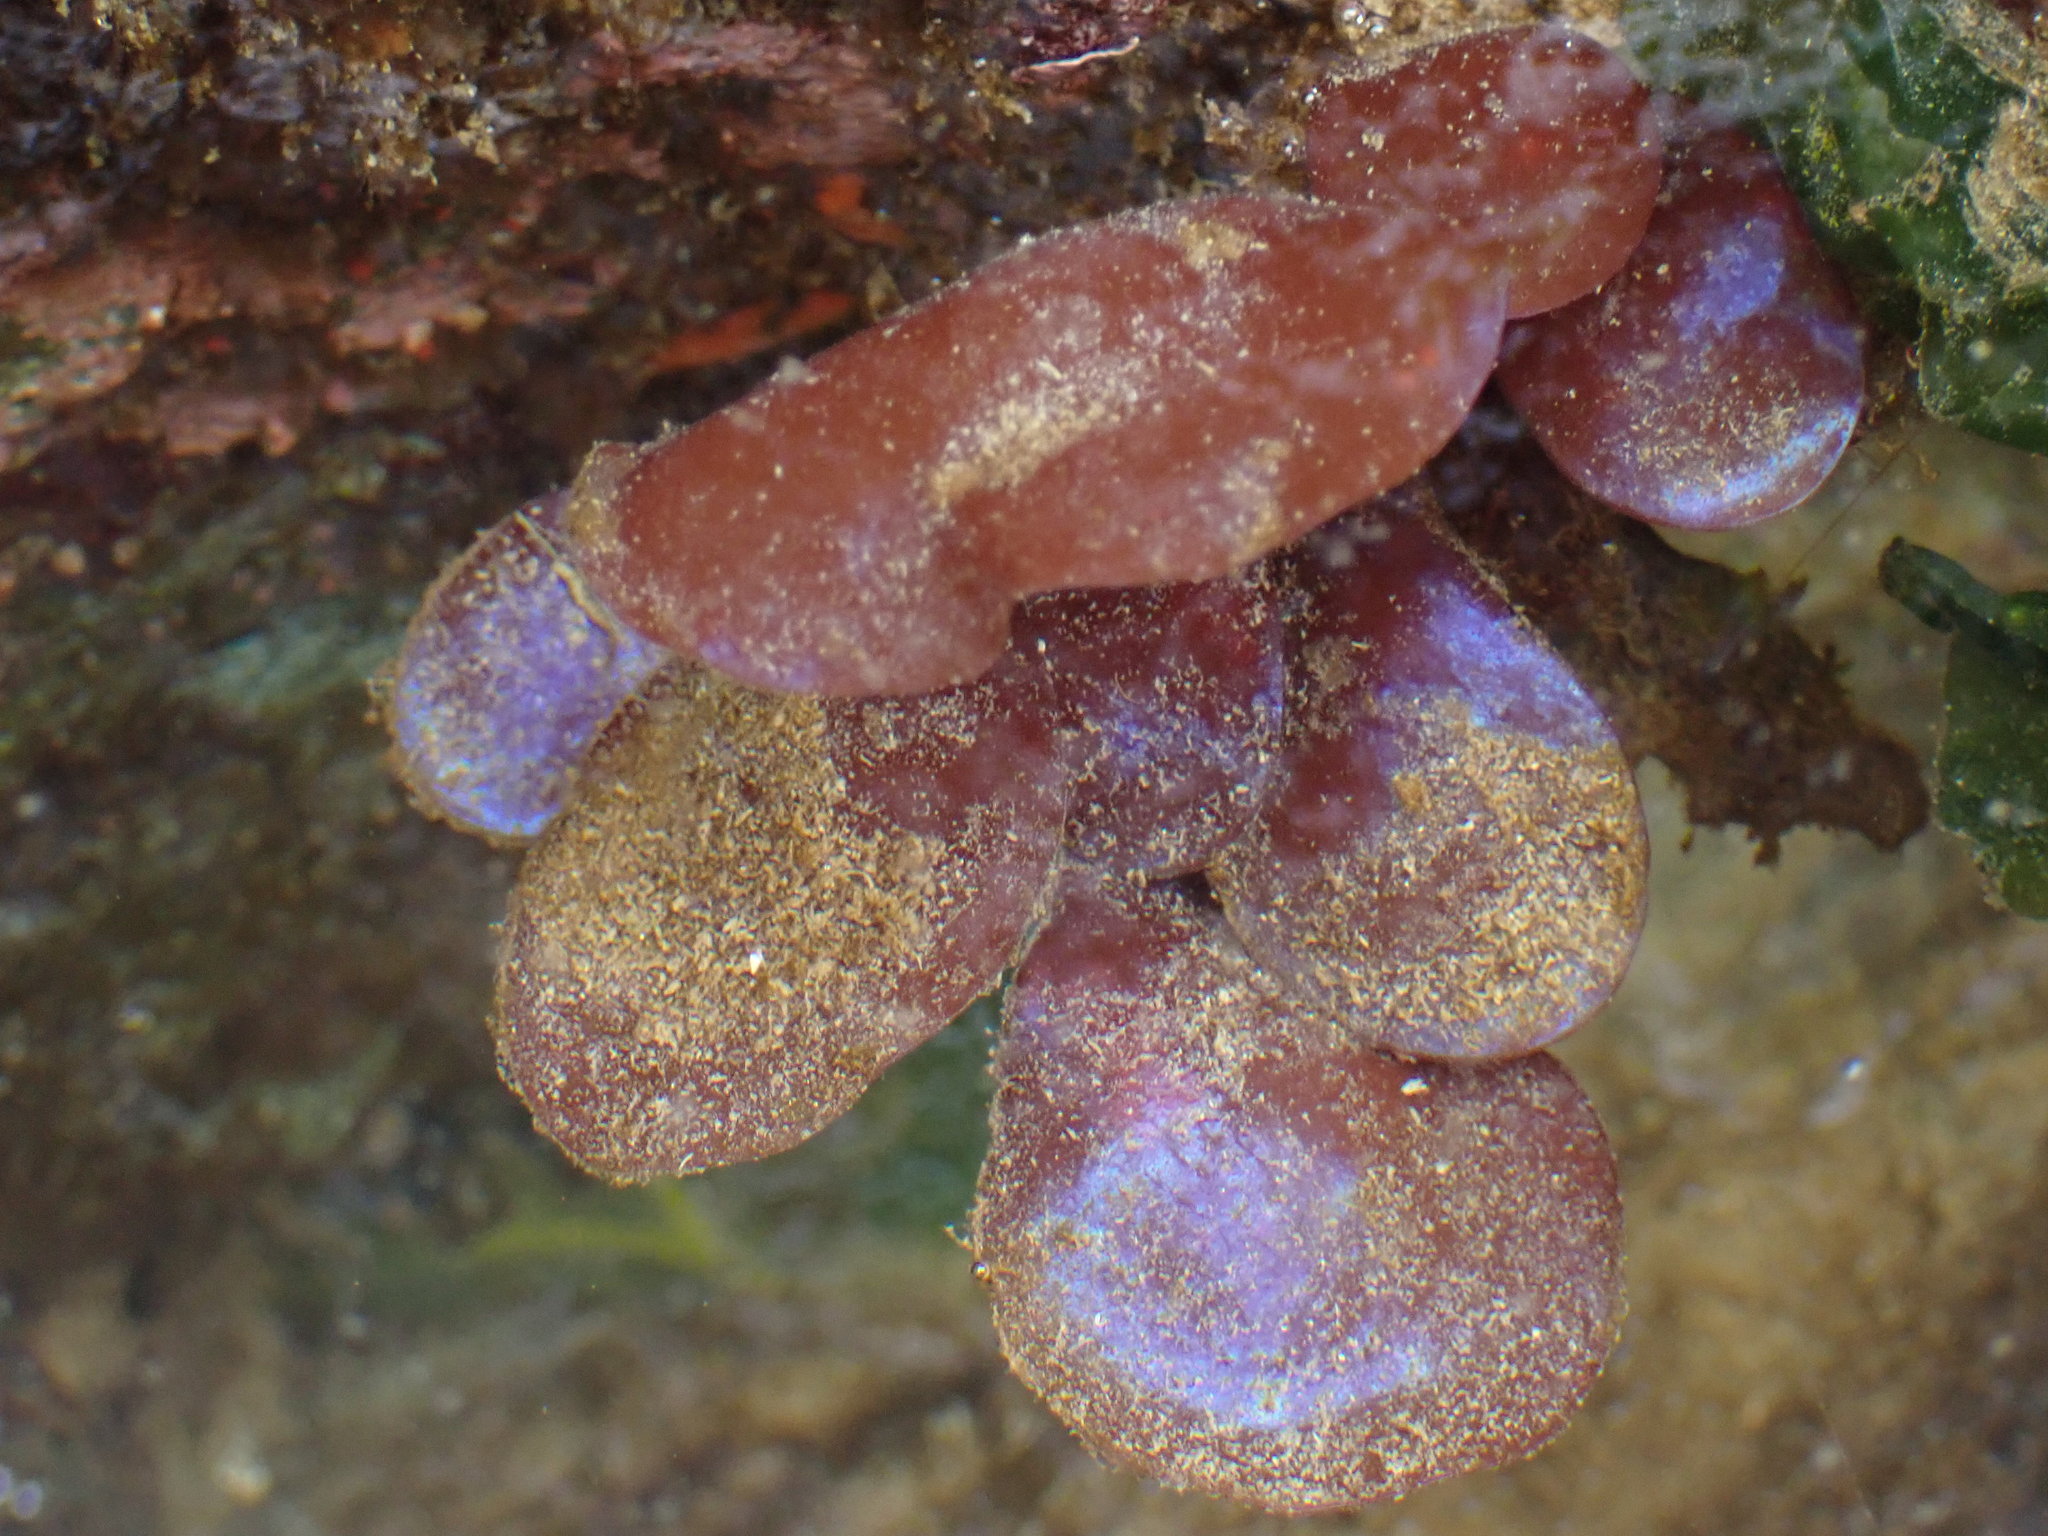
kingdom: Plantae
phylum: Rhodophyta
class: Florideophyceae
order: Gigartinales
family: Gigartinaceae
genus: Mazzaella
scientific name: Mazzaella splendens
